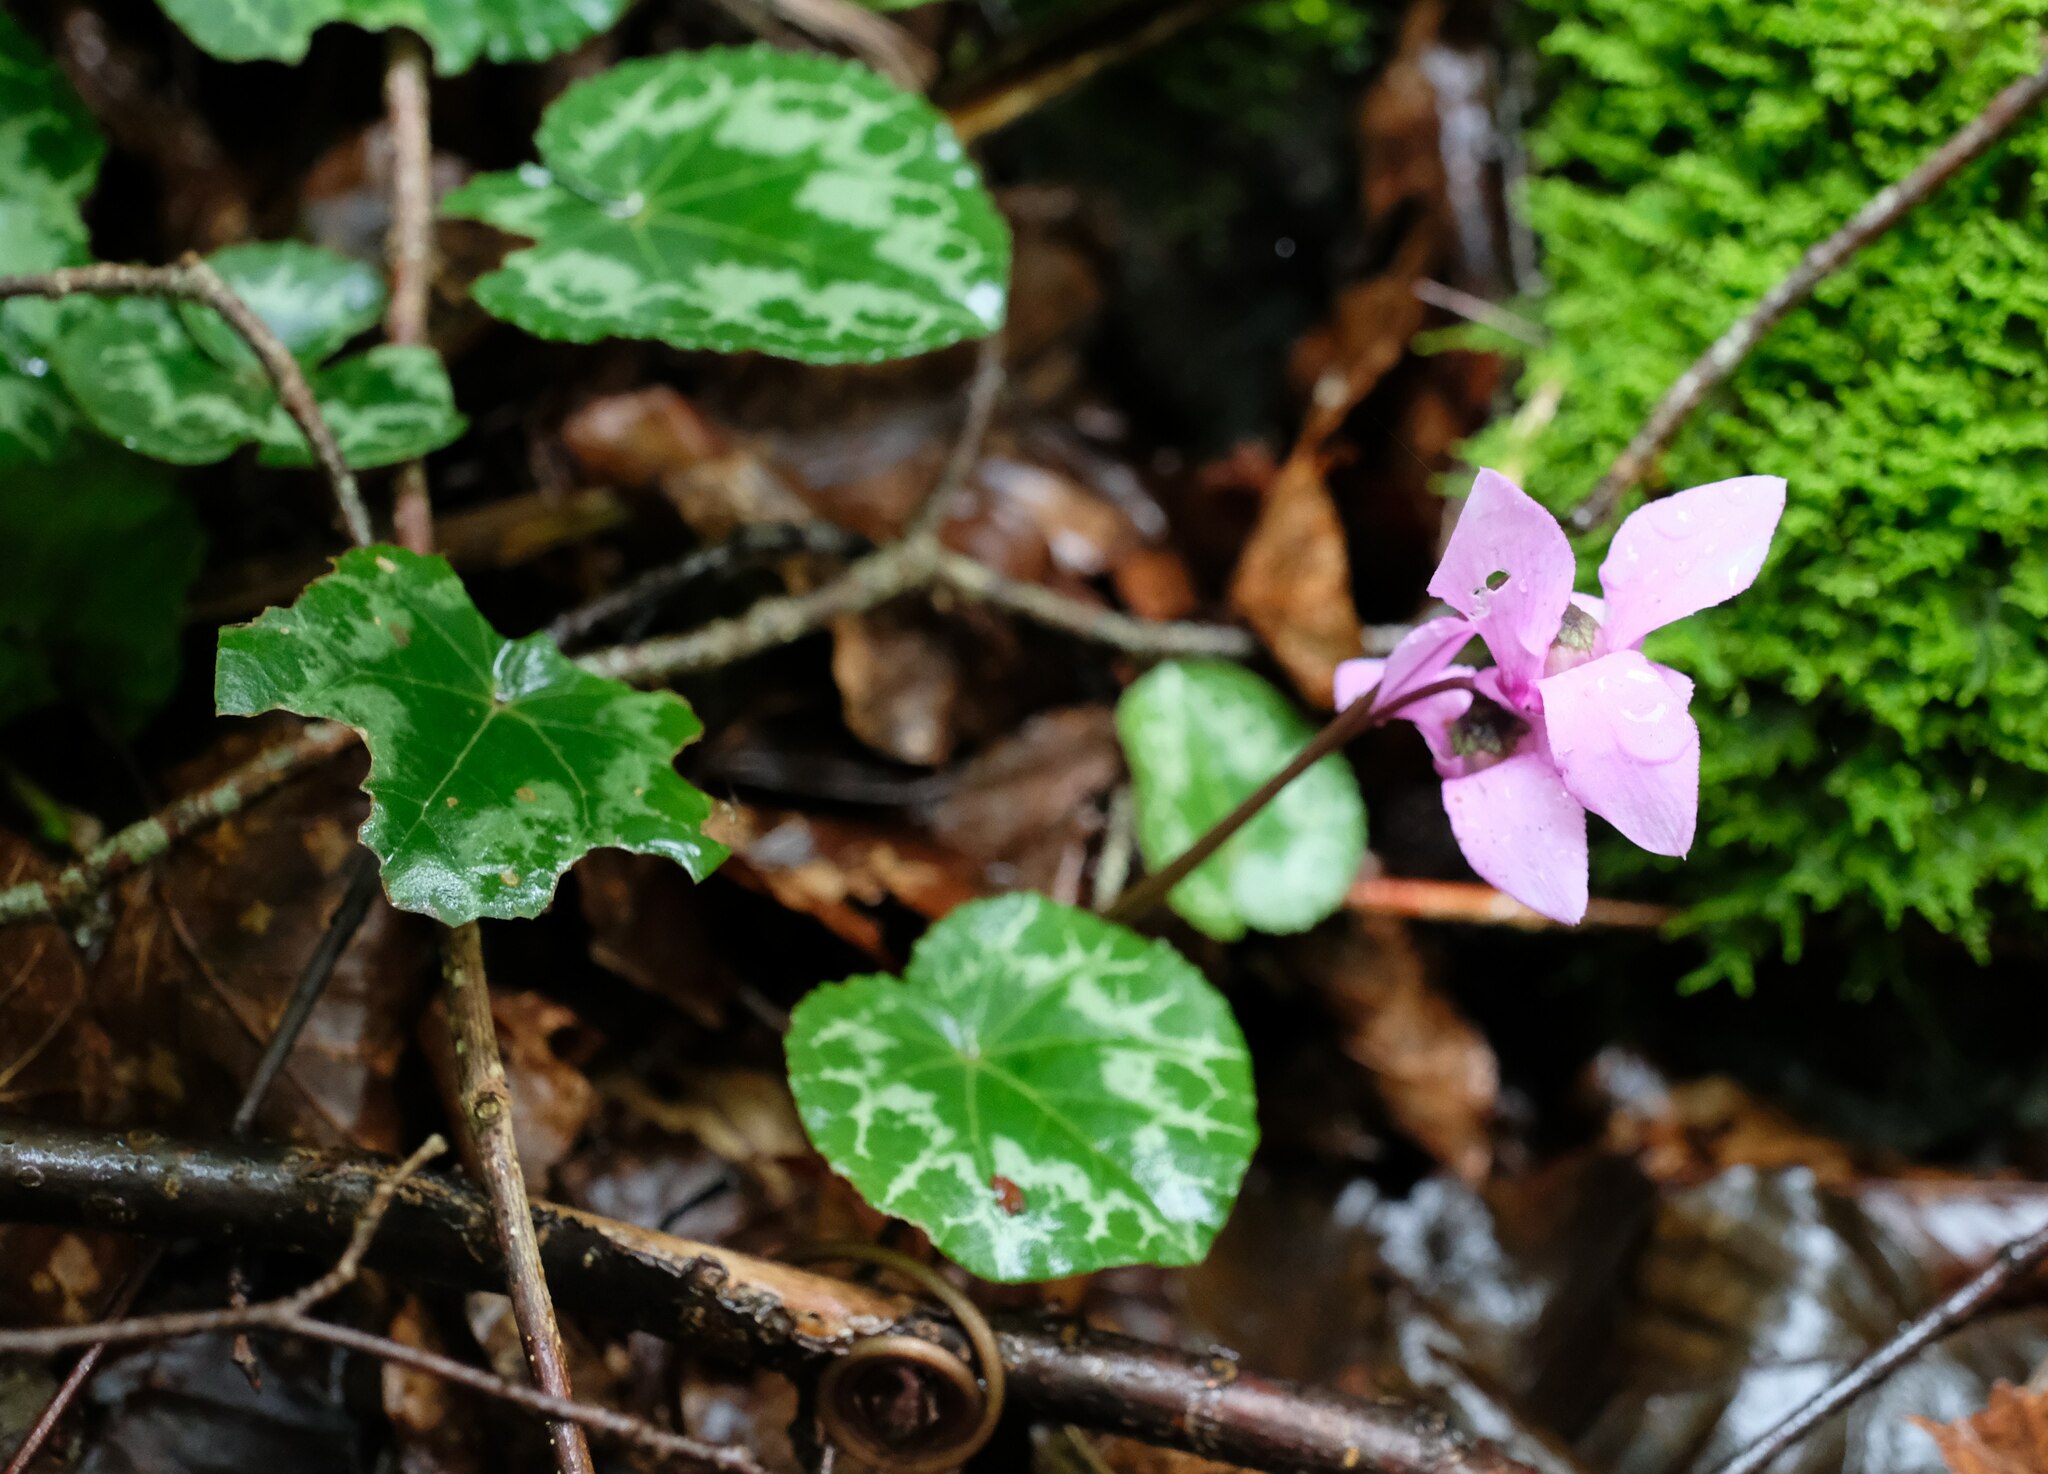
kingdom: Plantae
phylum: Tracheophyta
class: Magnoliopsida
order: Ericales
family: Primulaceae
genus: Cyclamen
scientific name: Cyclamen purpurascens
